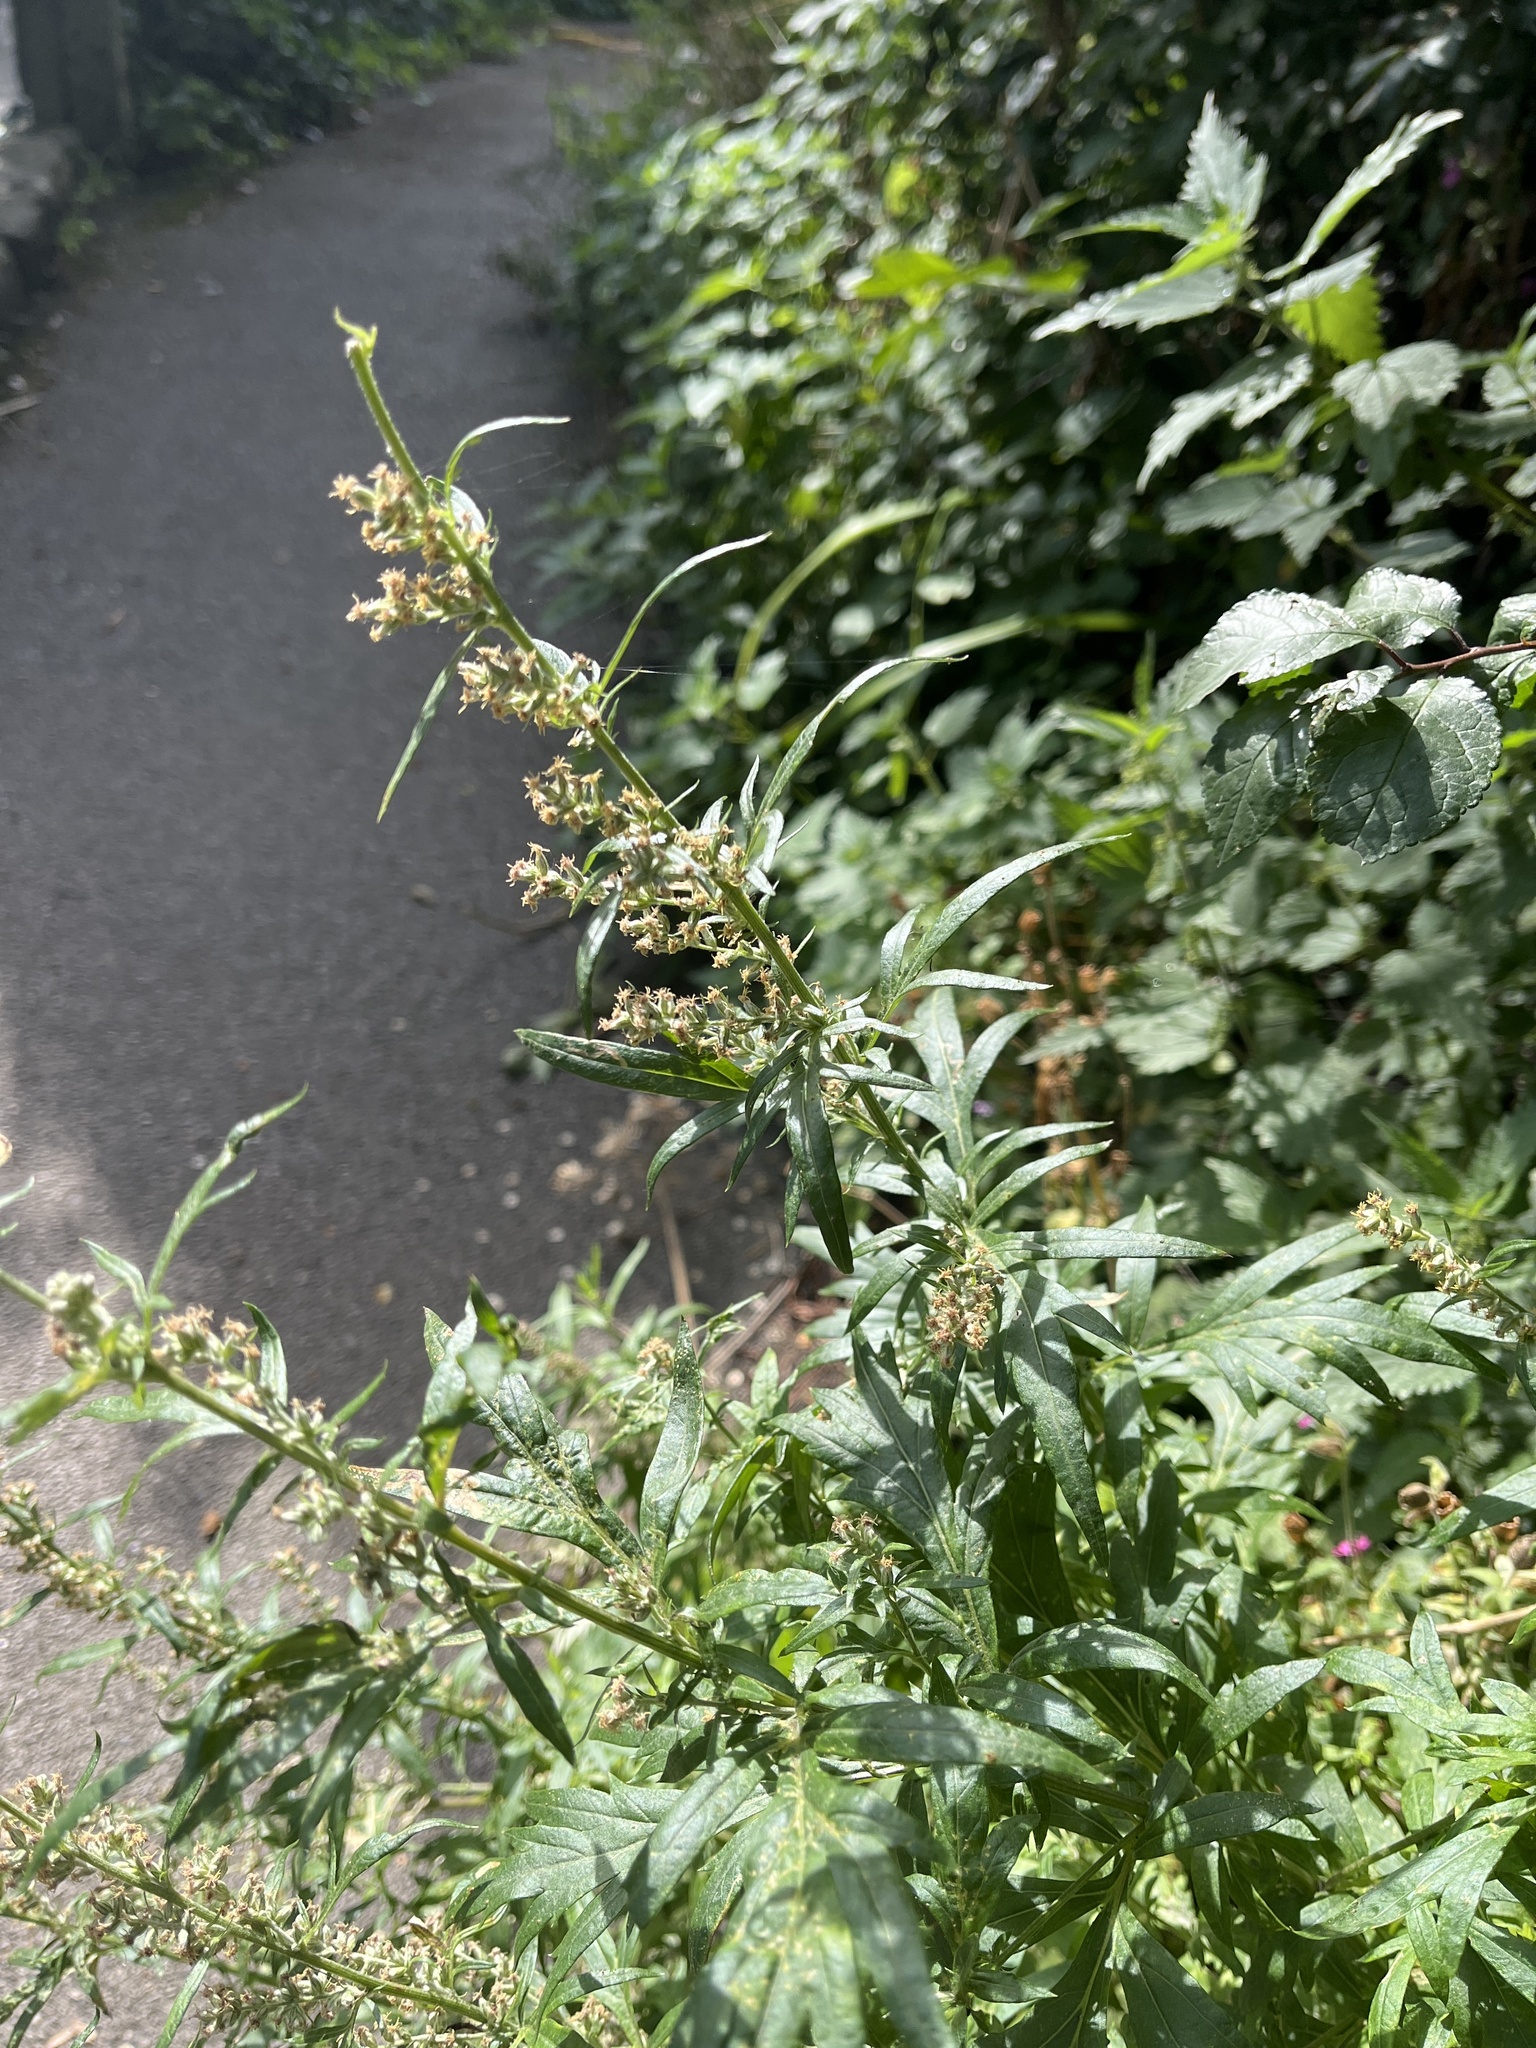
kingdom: Plantae
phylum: Tracheophyta
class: Magnoliopsida
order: Asterales
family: Asteraceae
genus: Artemisia
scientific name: Artemisia vulgaris
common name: Mugwort
